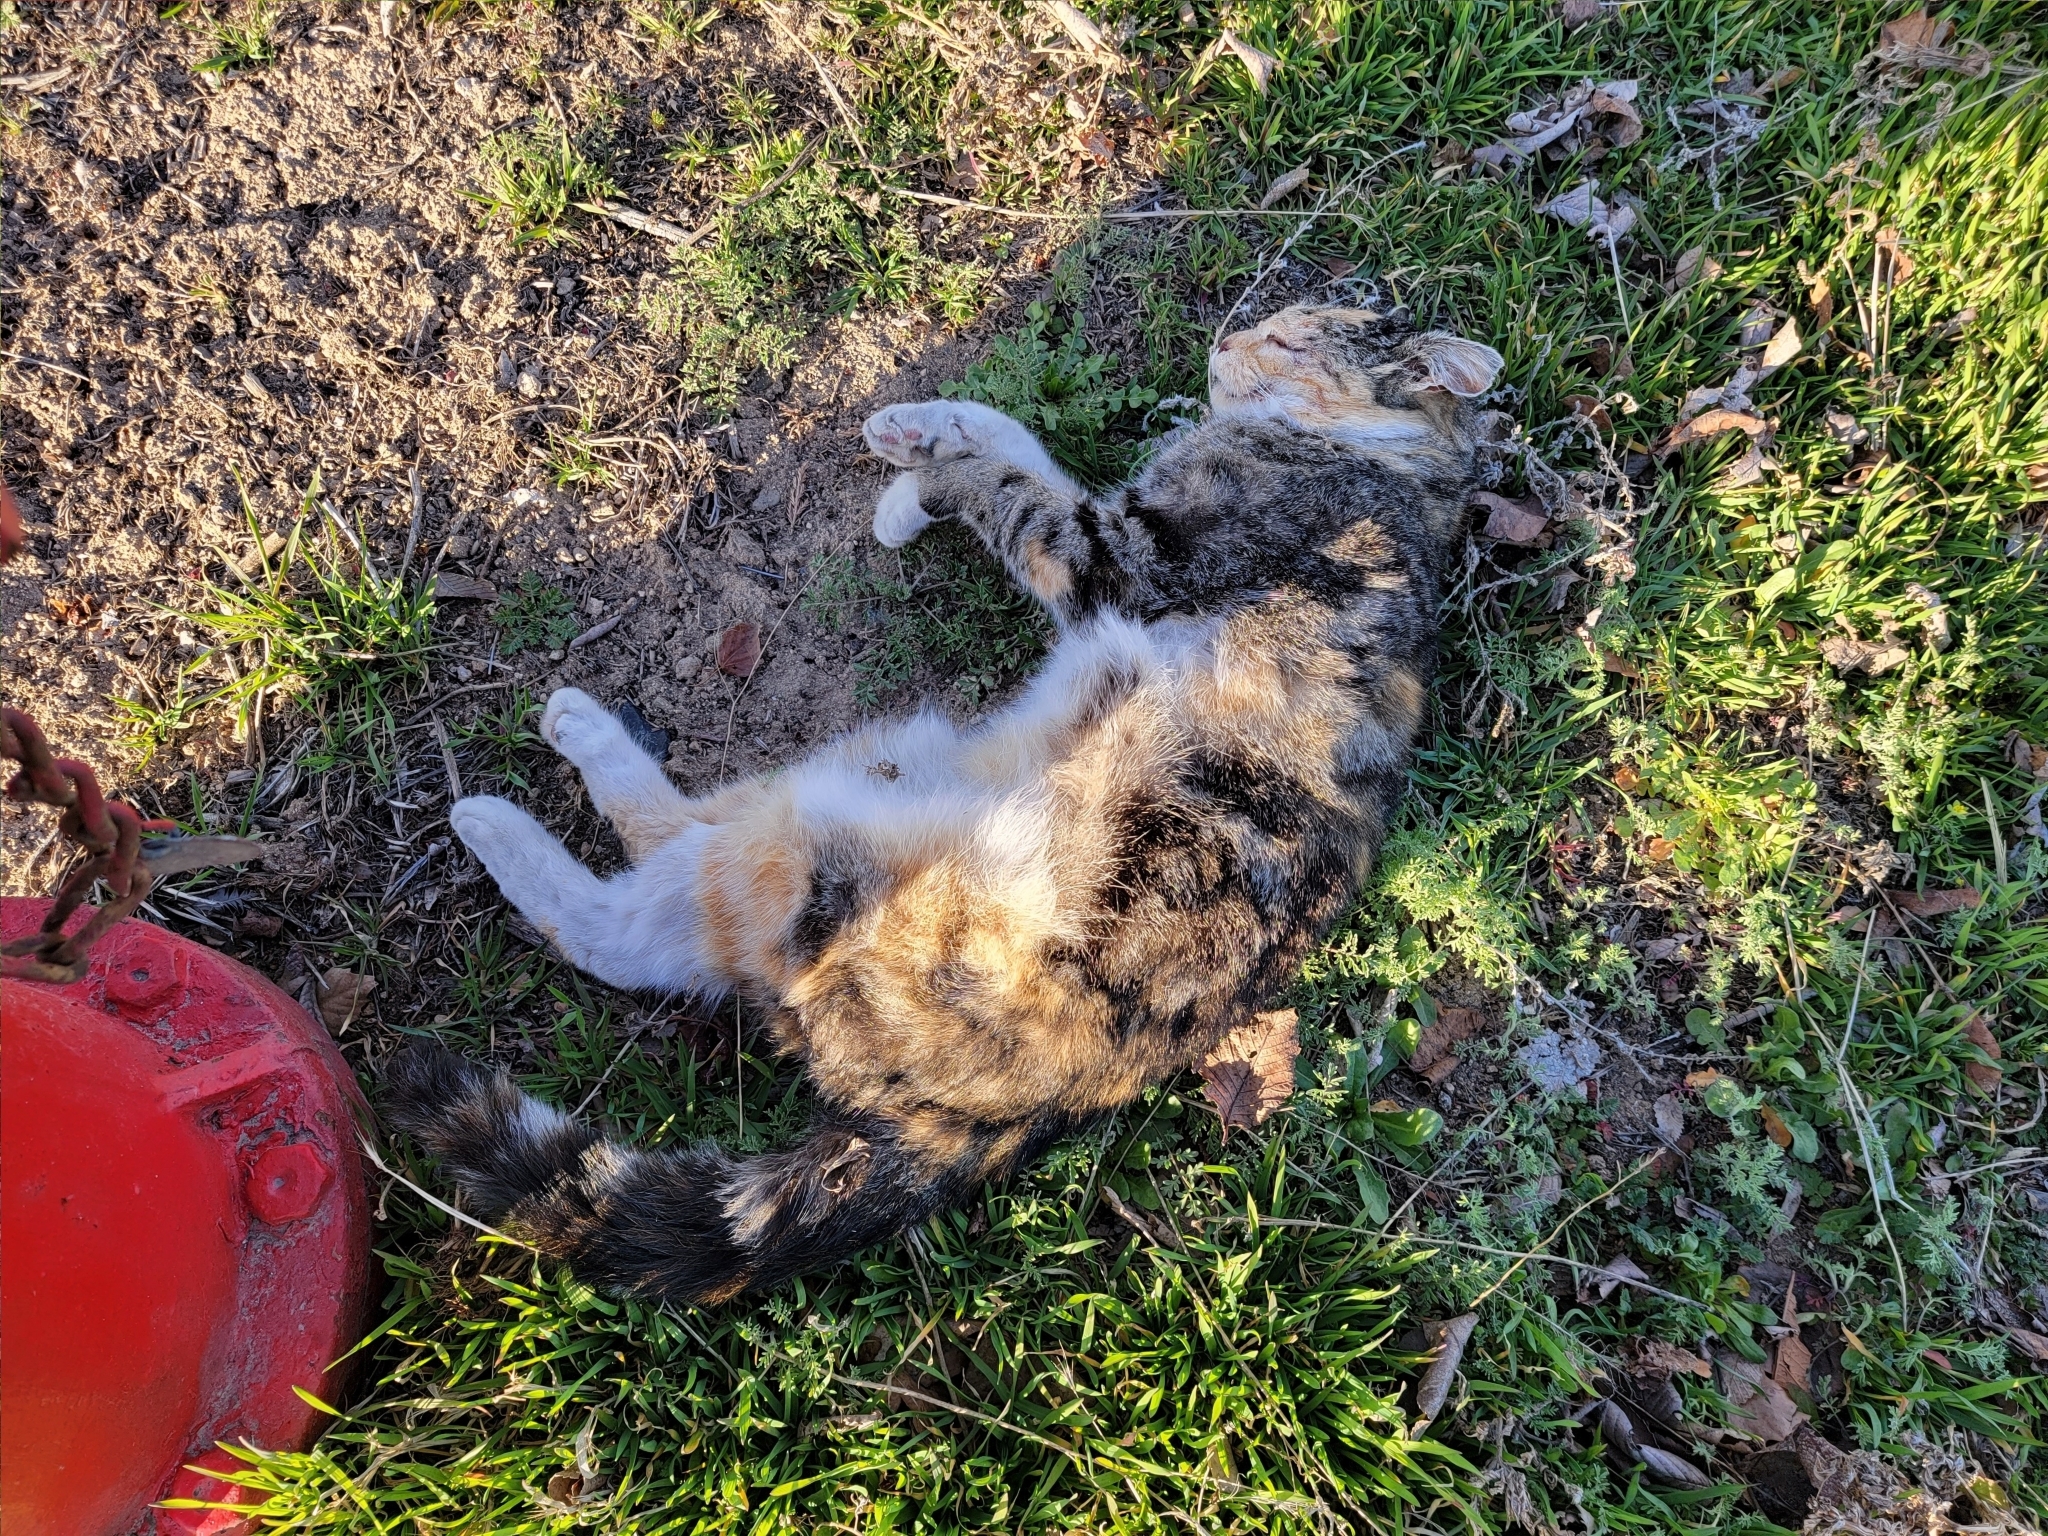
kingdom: Animalia
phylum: Chordata
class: Mammalia
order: Carnivora
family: Felidae
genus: Felis
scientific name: Felis catus
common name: Domestic cat
